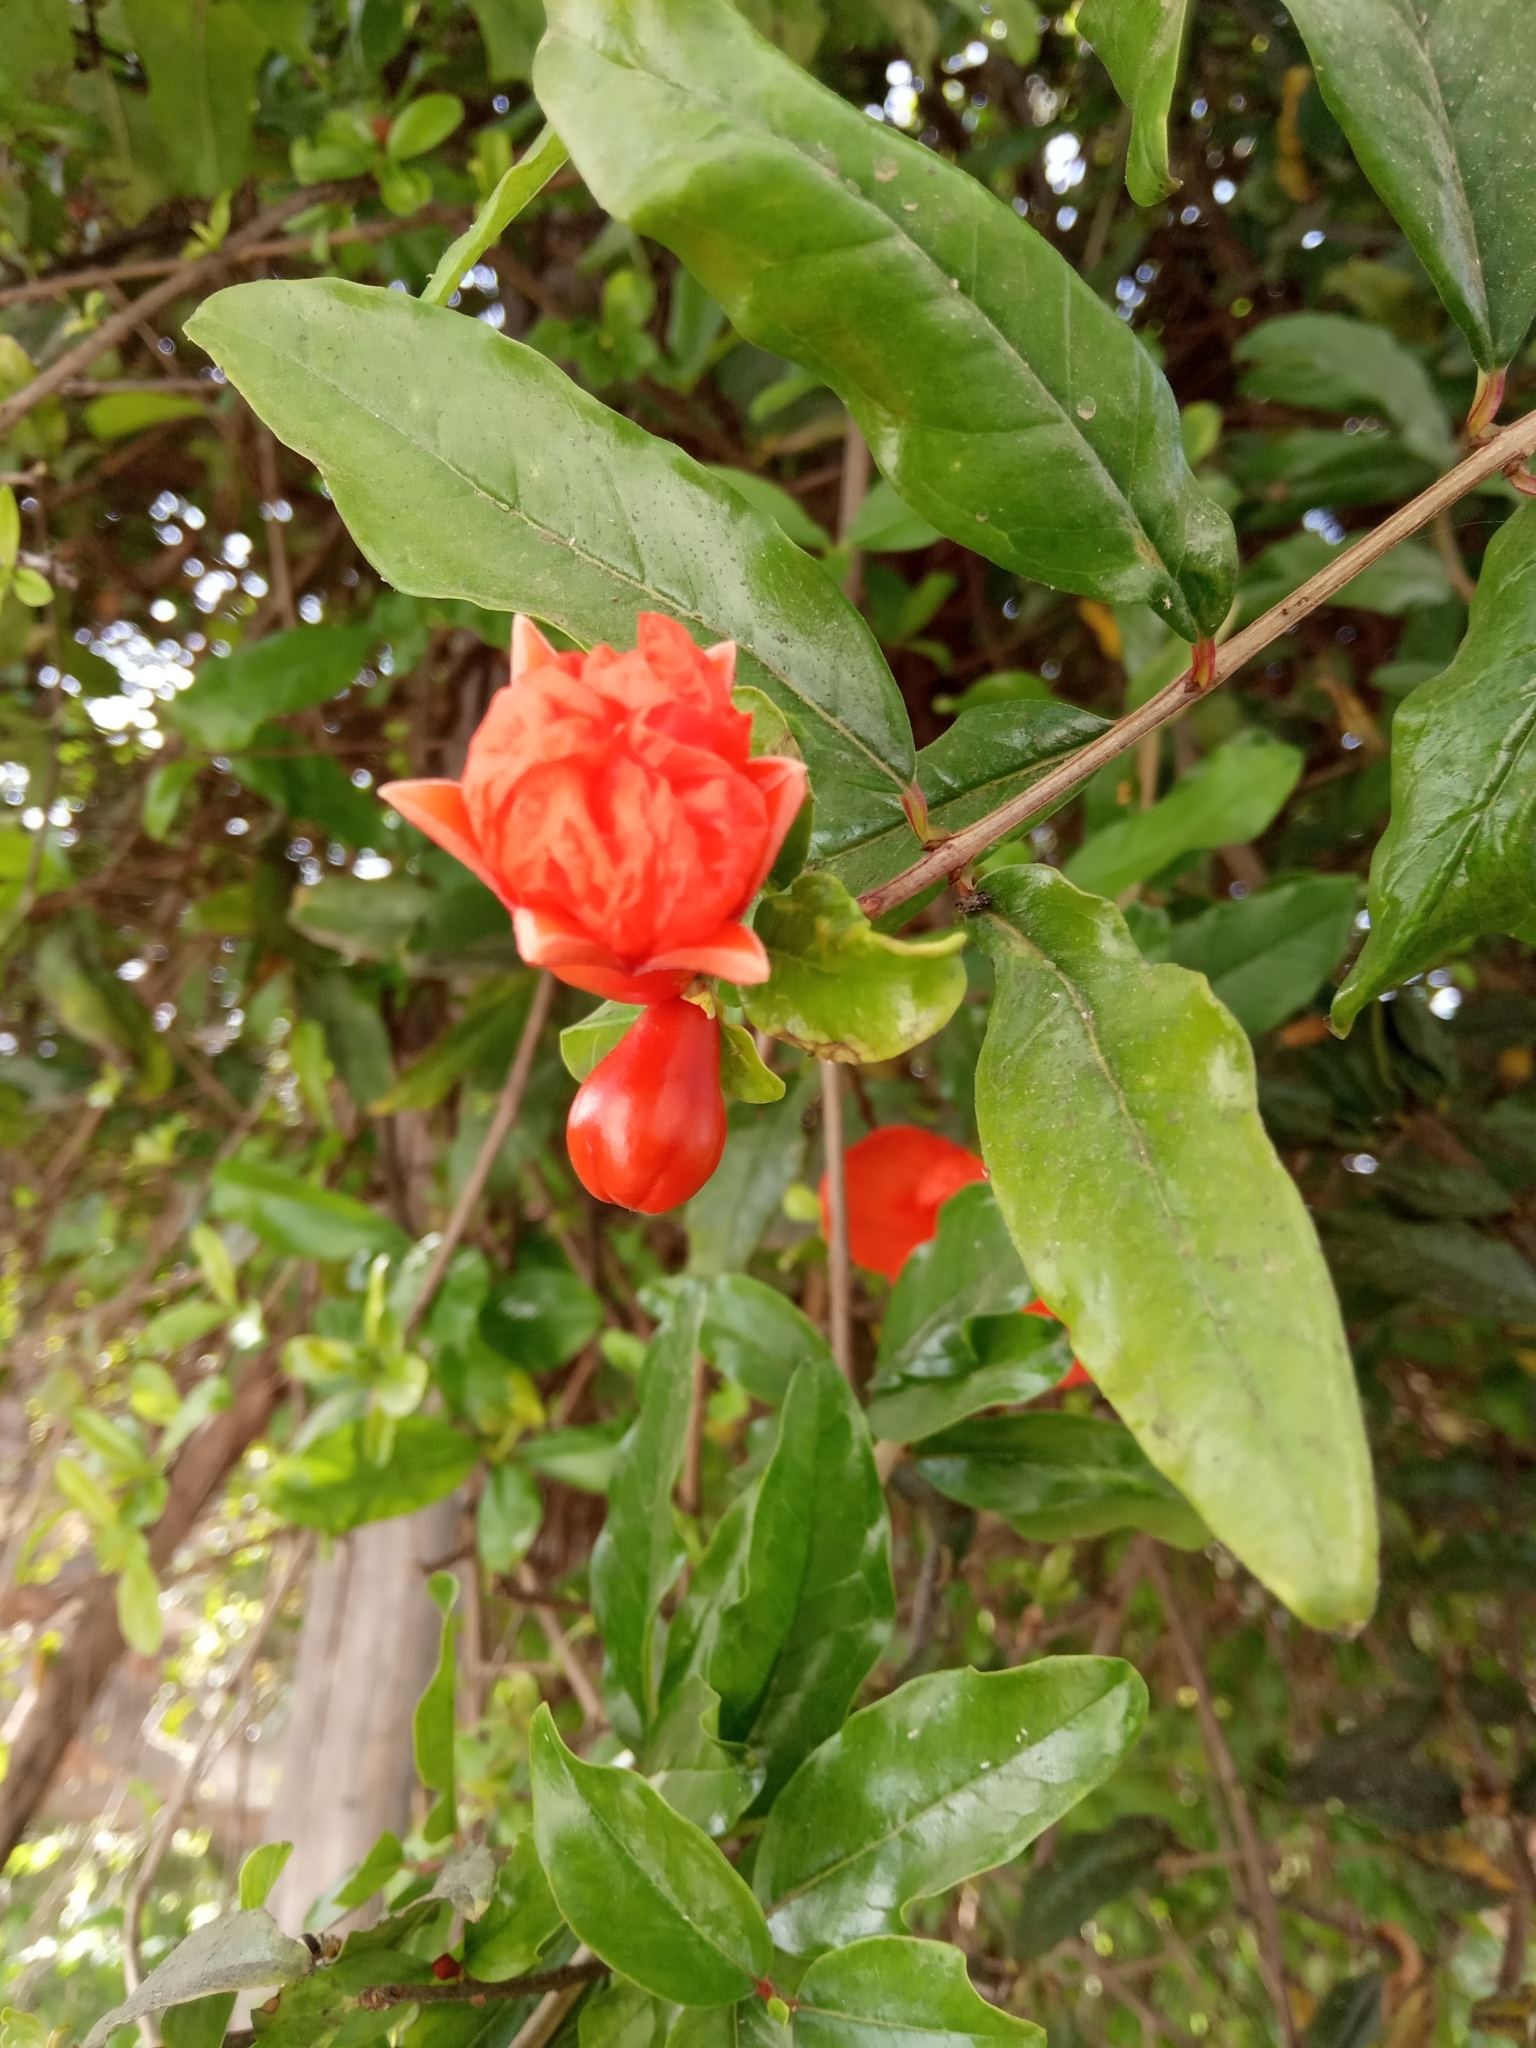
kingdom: Plantae
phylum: Tracheophyta
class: Magnoliopsida
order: Myrtales
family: Lythraceae
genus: Punica
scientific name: Punica granatum
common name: Pomegranate
